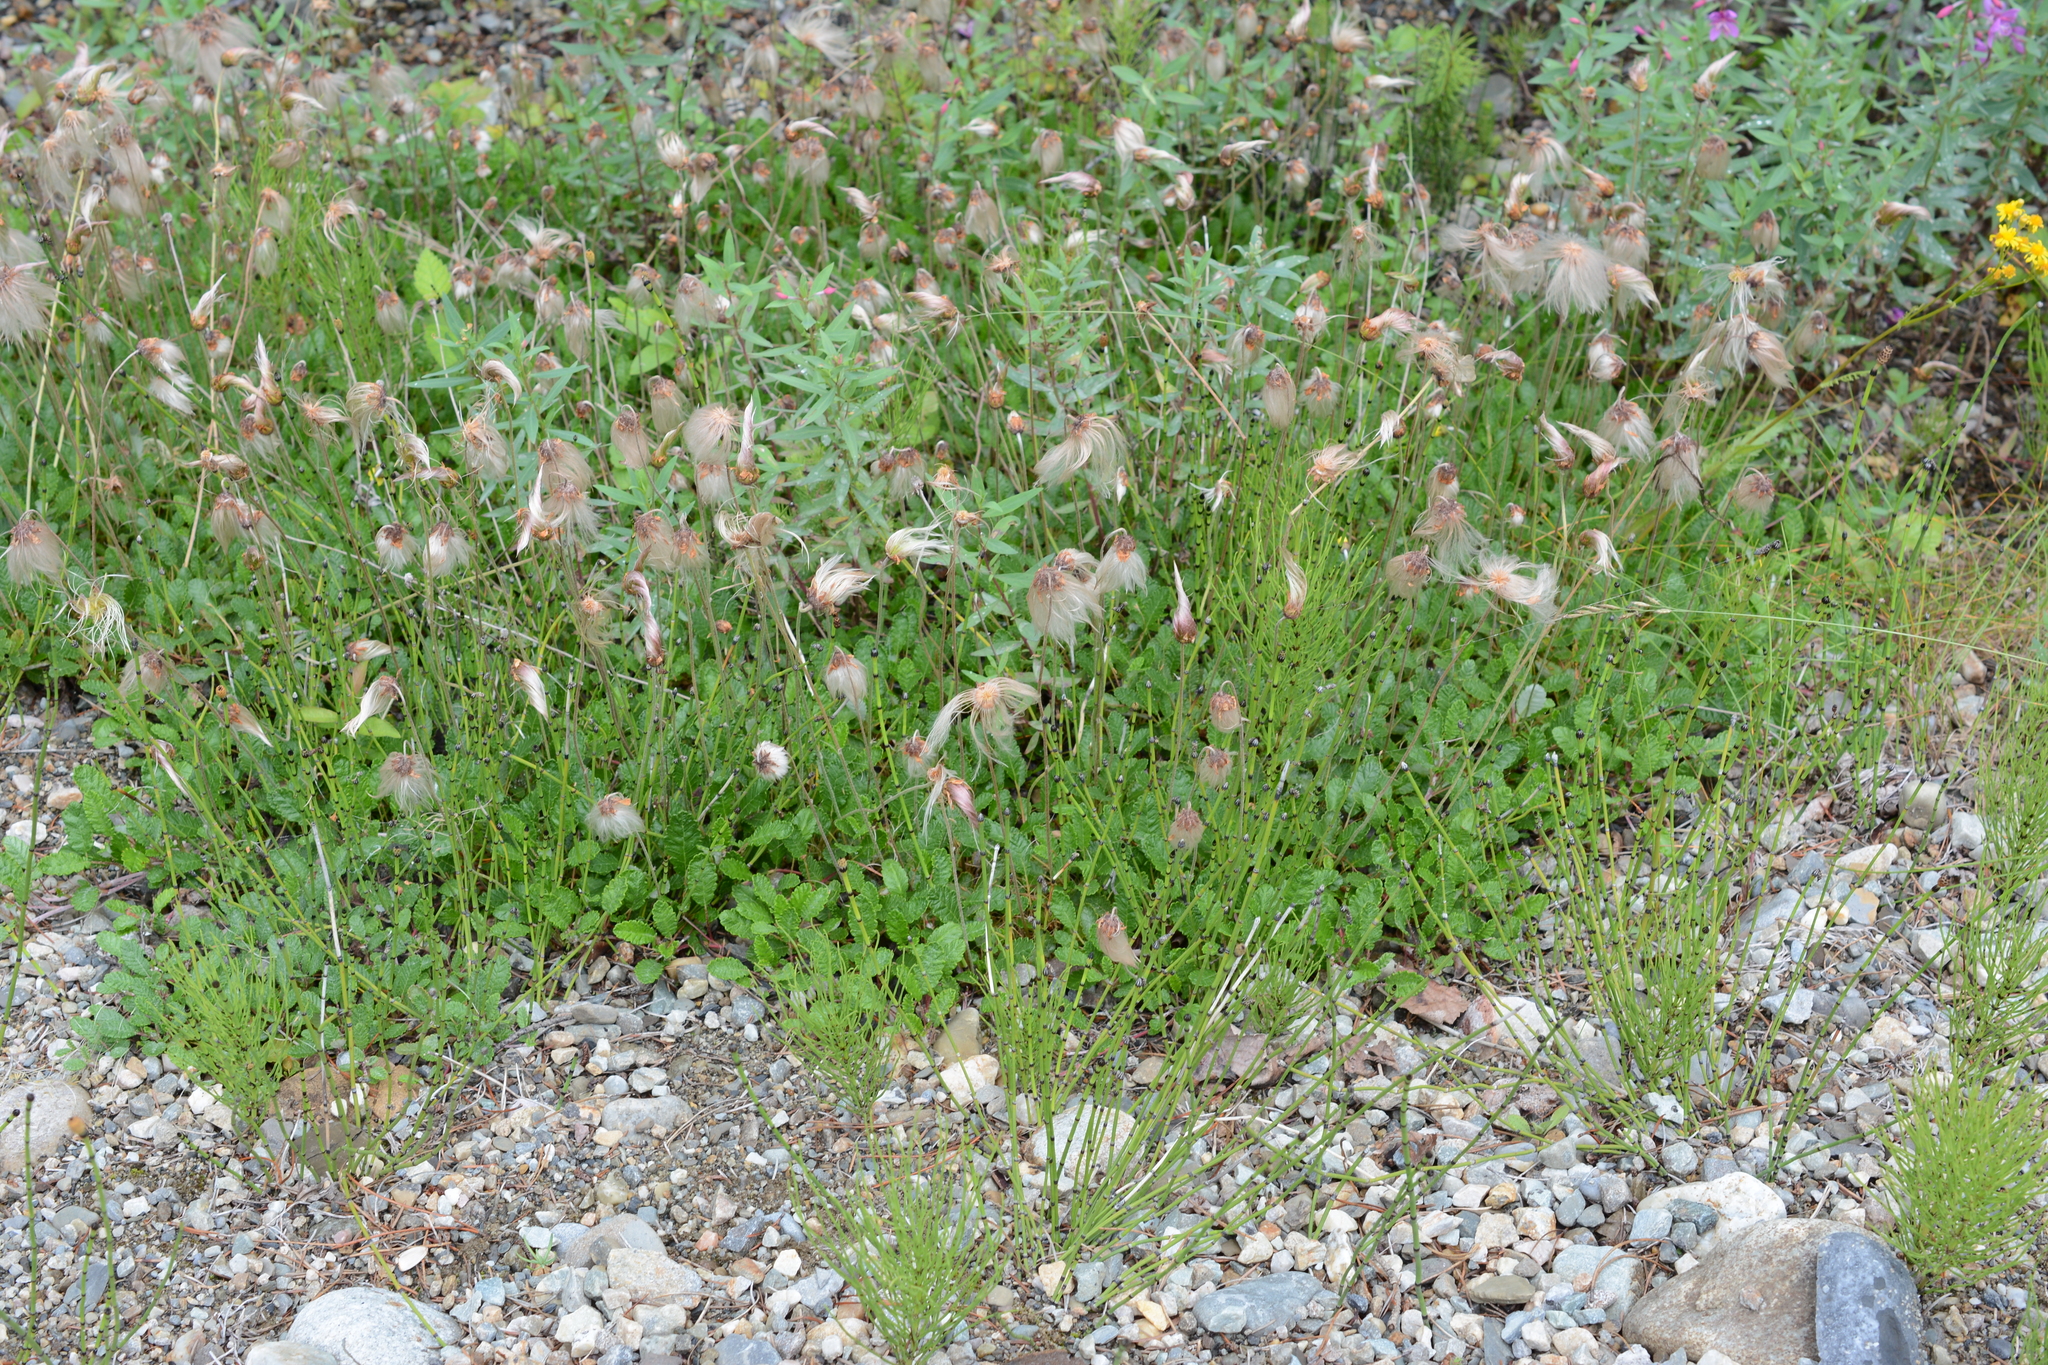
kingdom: Plantae
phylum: Tracheophyta
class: Magnoliopsida
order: Rosales
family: Rosaceae
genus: Dryas
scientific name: Dryas drummondii
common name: Drummond's dryad
